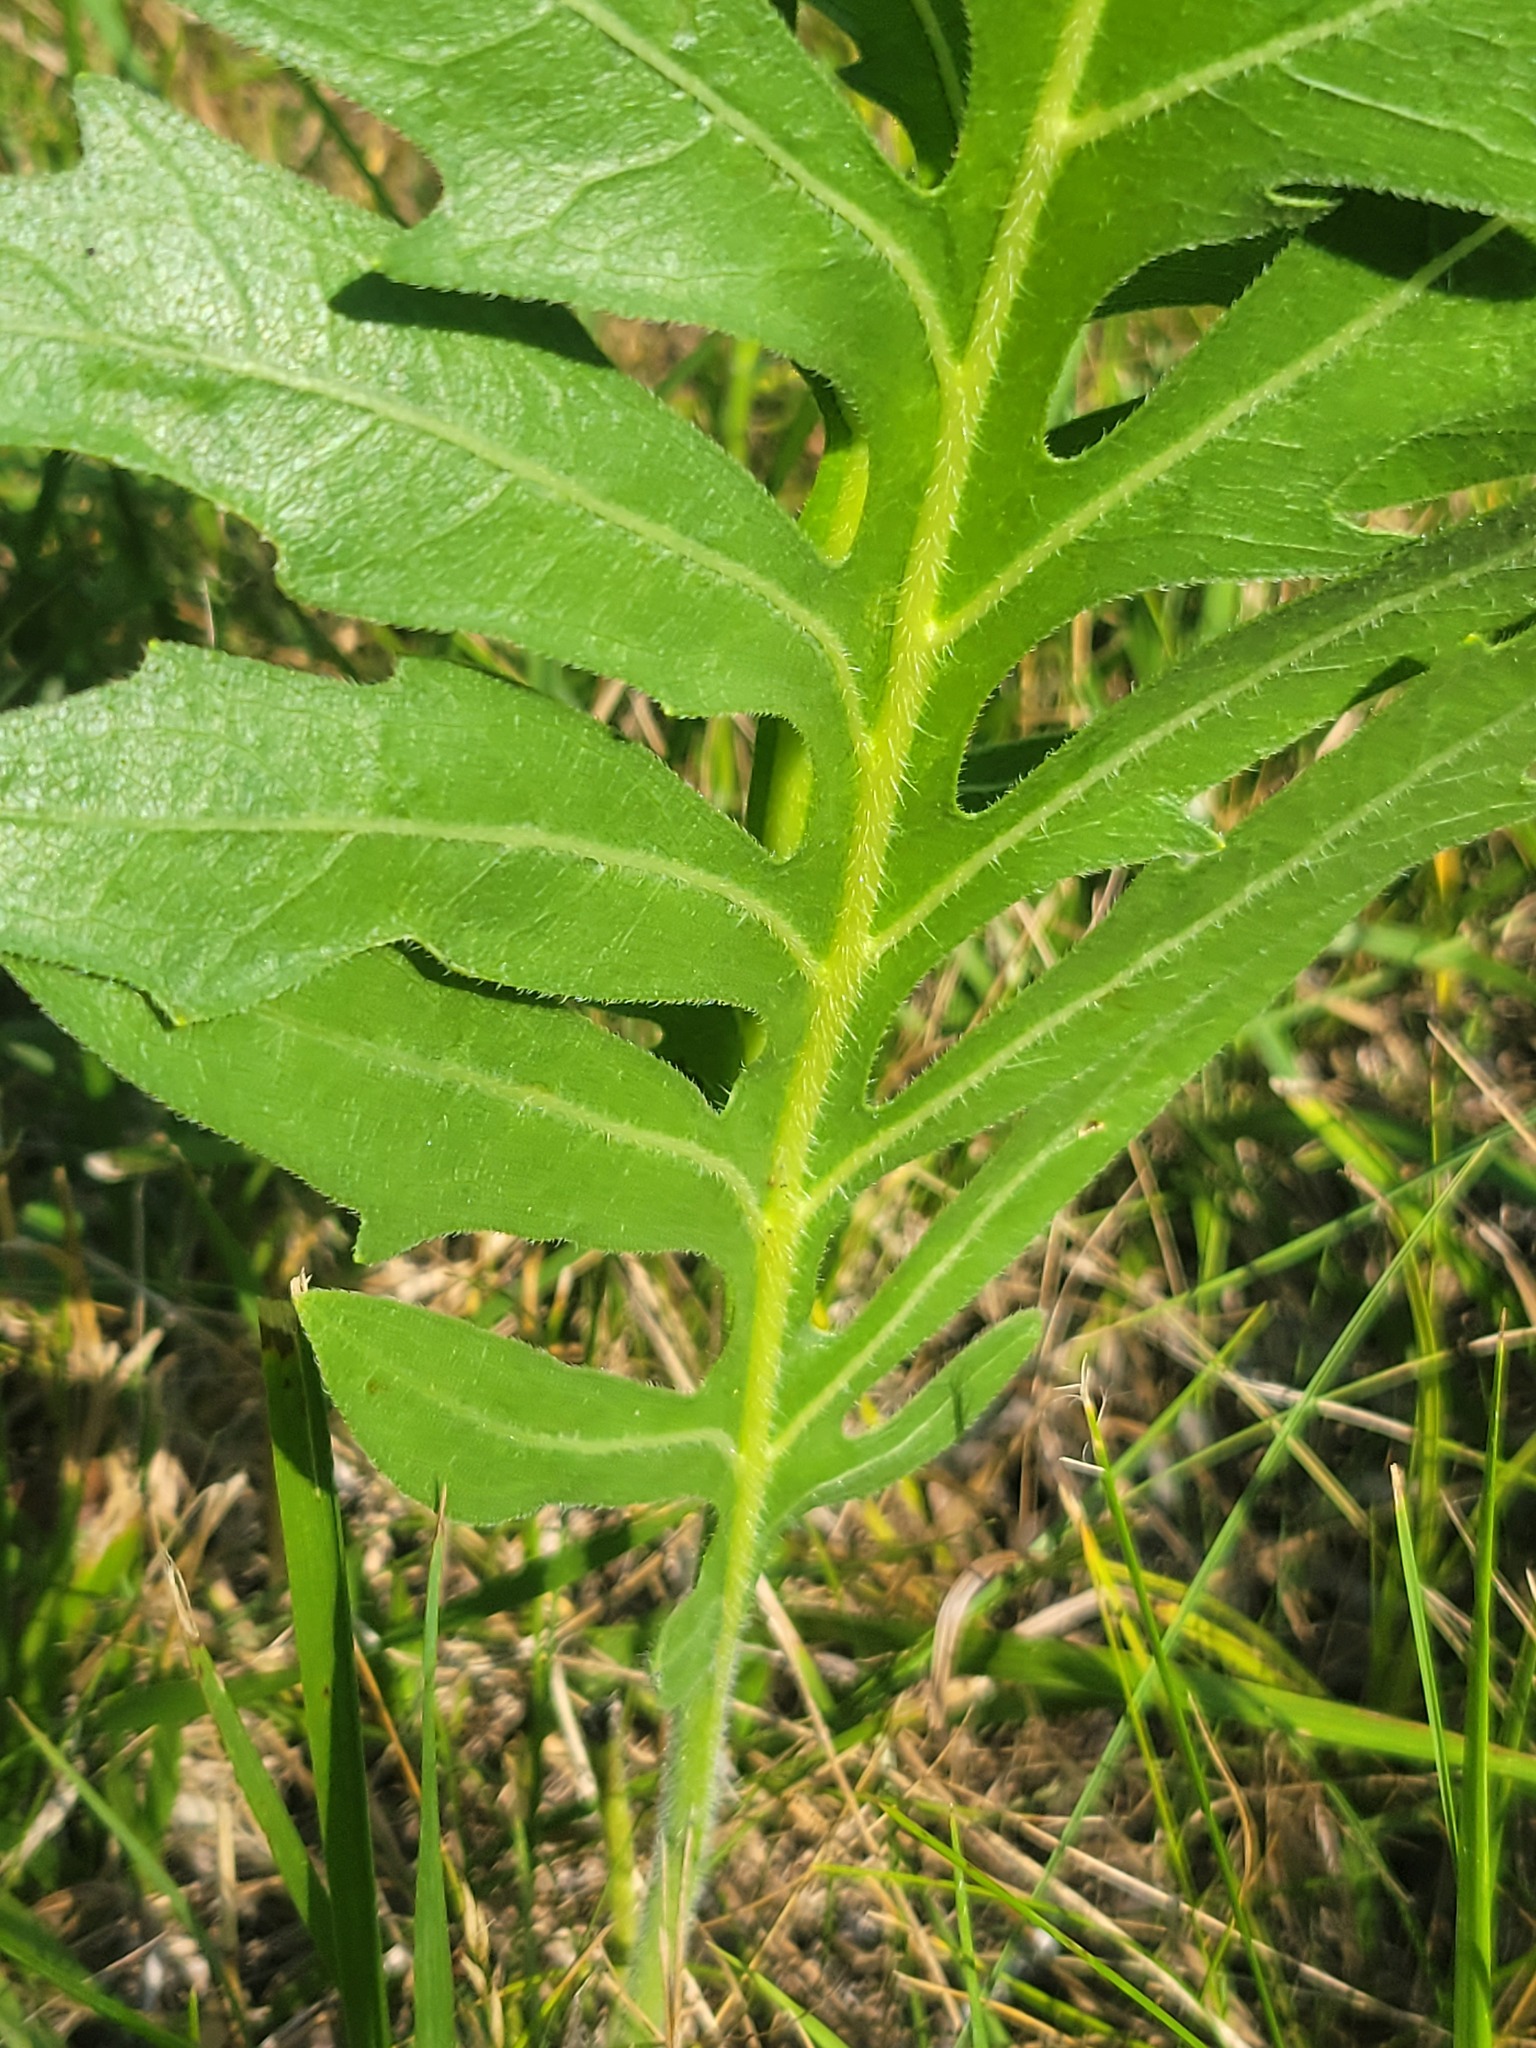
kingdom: Plantae
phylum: Tracheophyta
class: Magnoliopsida
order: Asterales
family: Asteraceae
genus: Silphium
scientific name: Silphium laciniatum
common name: Polarplant
